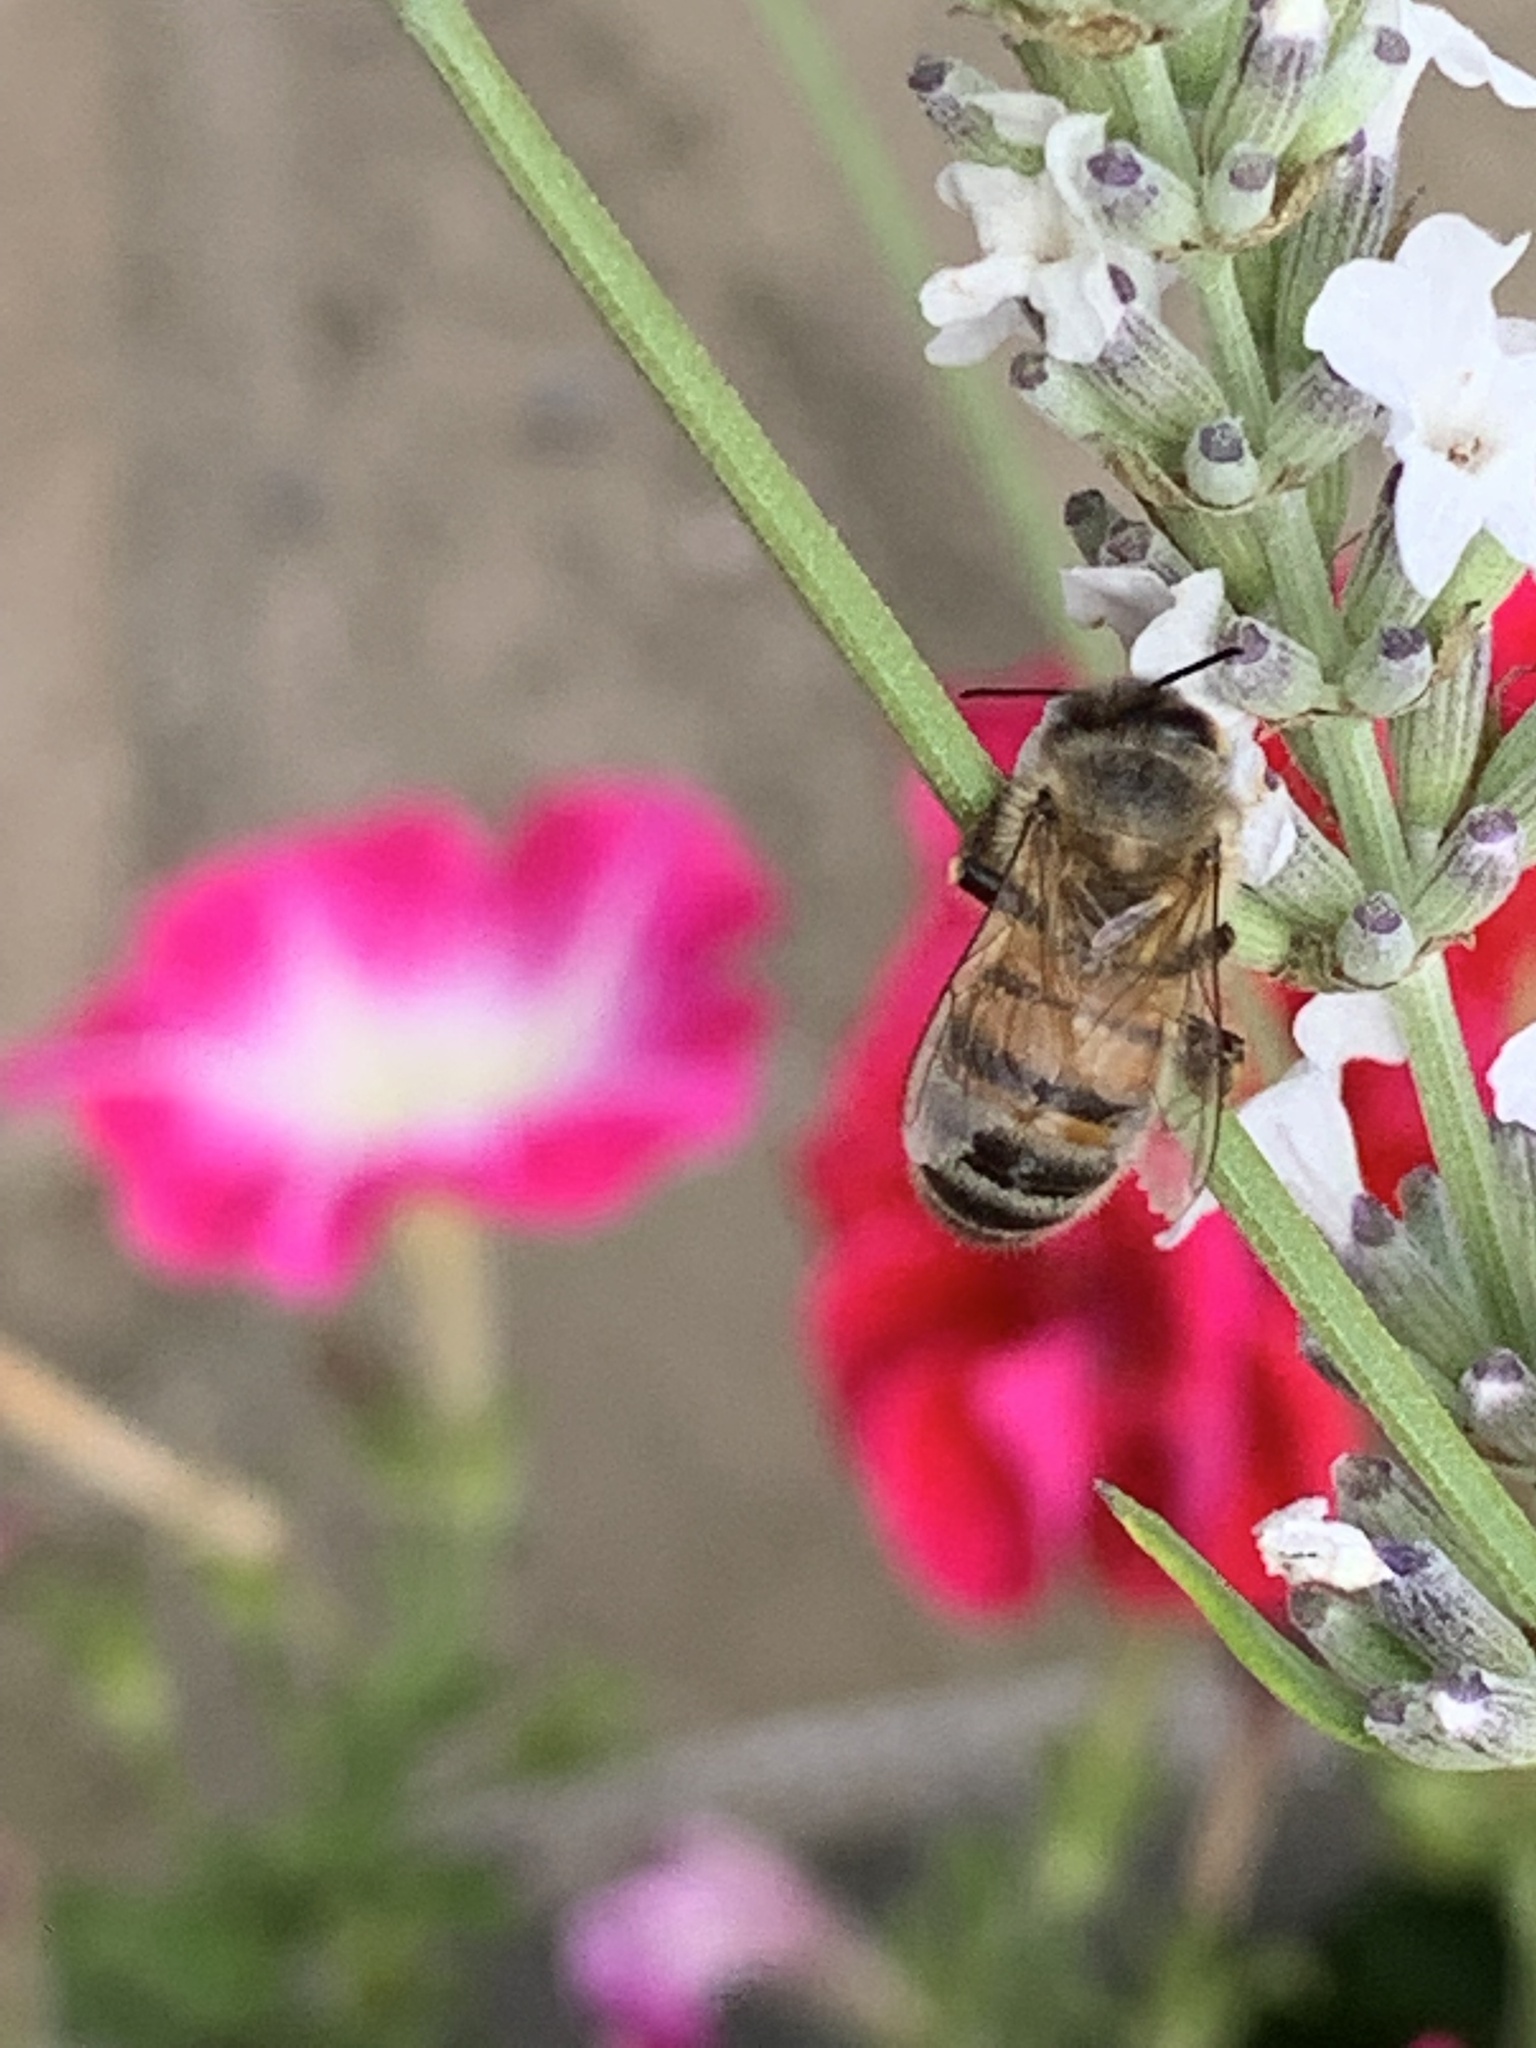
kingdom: Animalia
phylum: Arthropoda
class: Insecta
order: Hymenoptera
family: Apidae
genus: Apis
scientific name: Apis mellifera
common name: Honey bee
